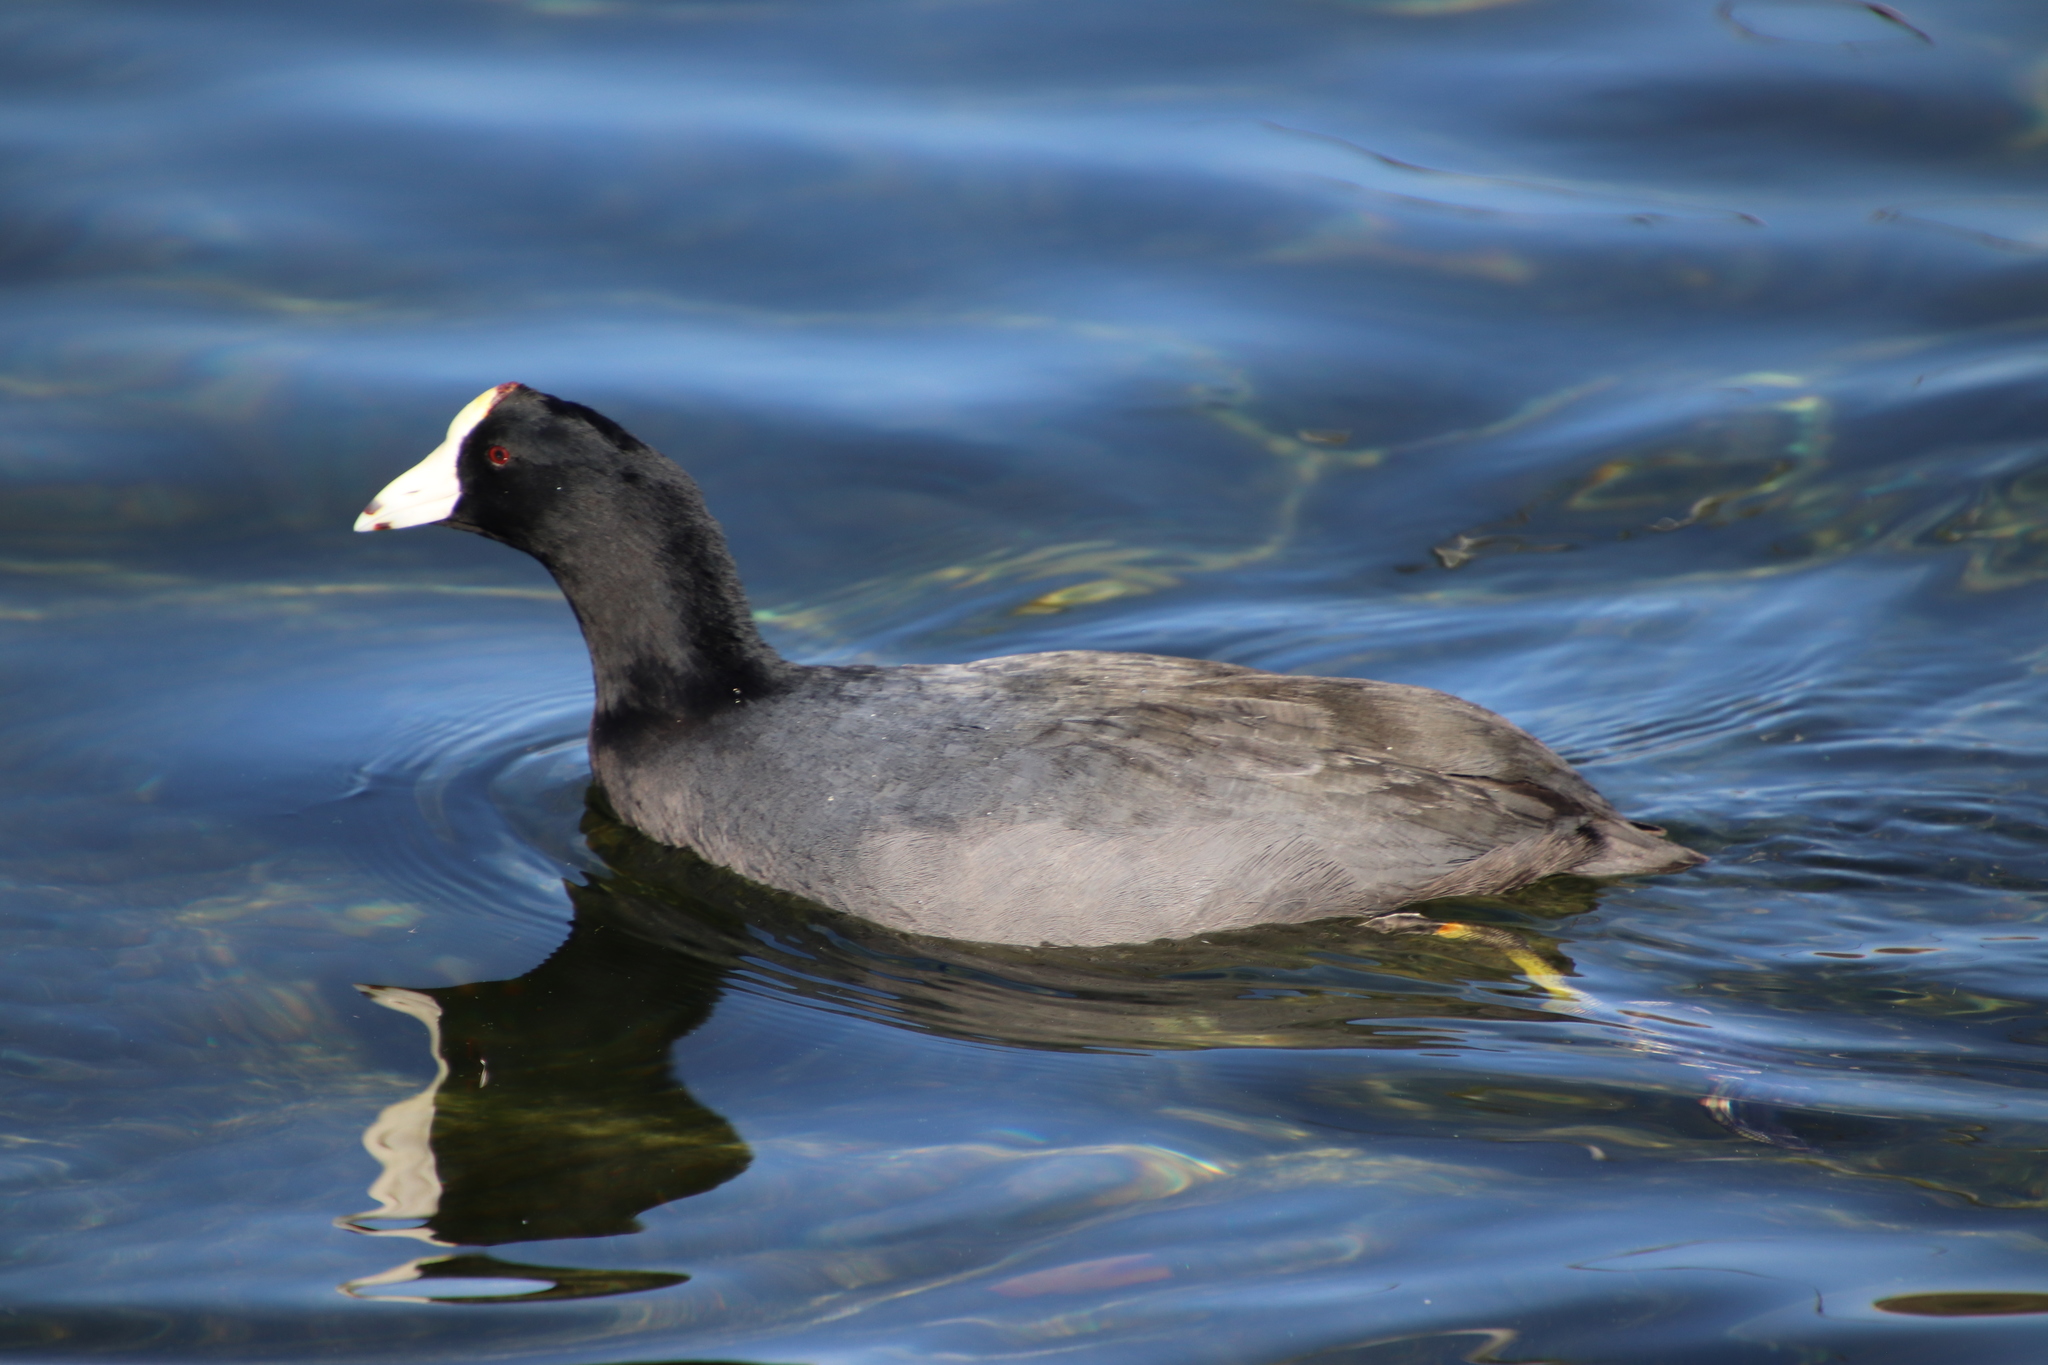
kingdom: Animalia
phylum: Chordata
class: Aves
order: Gruiformes
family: Rallidae
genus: Fulica
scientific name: Fulica americana
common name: American coot
